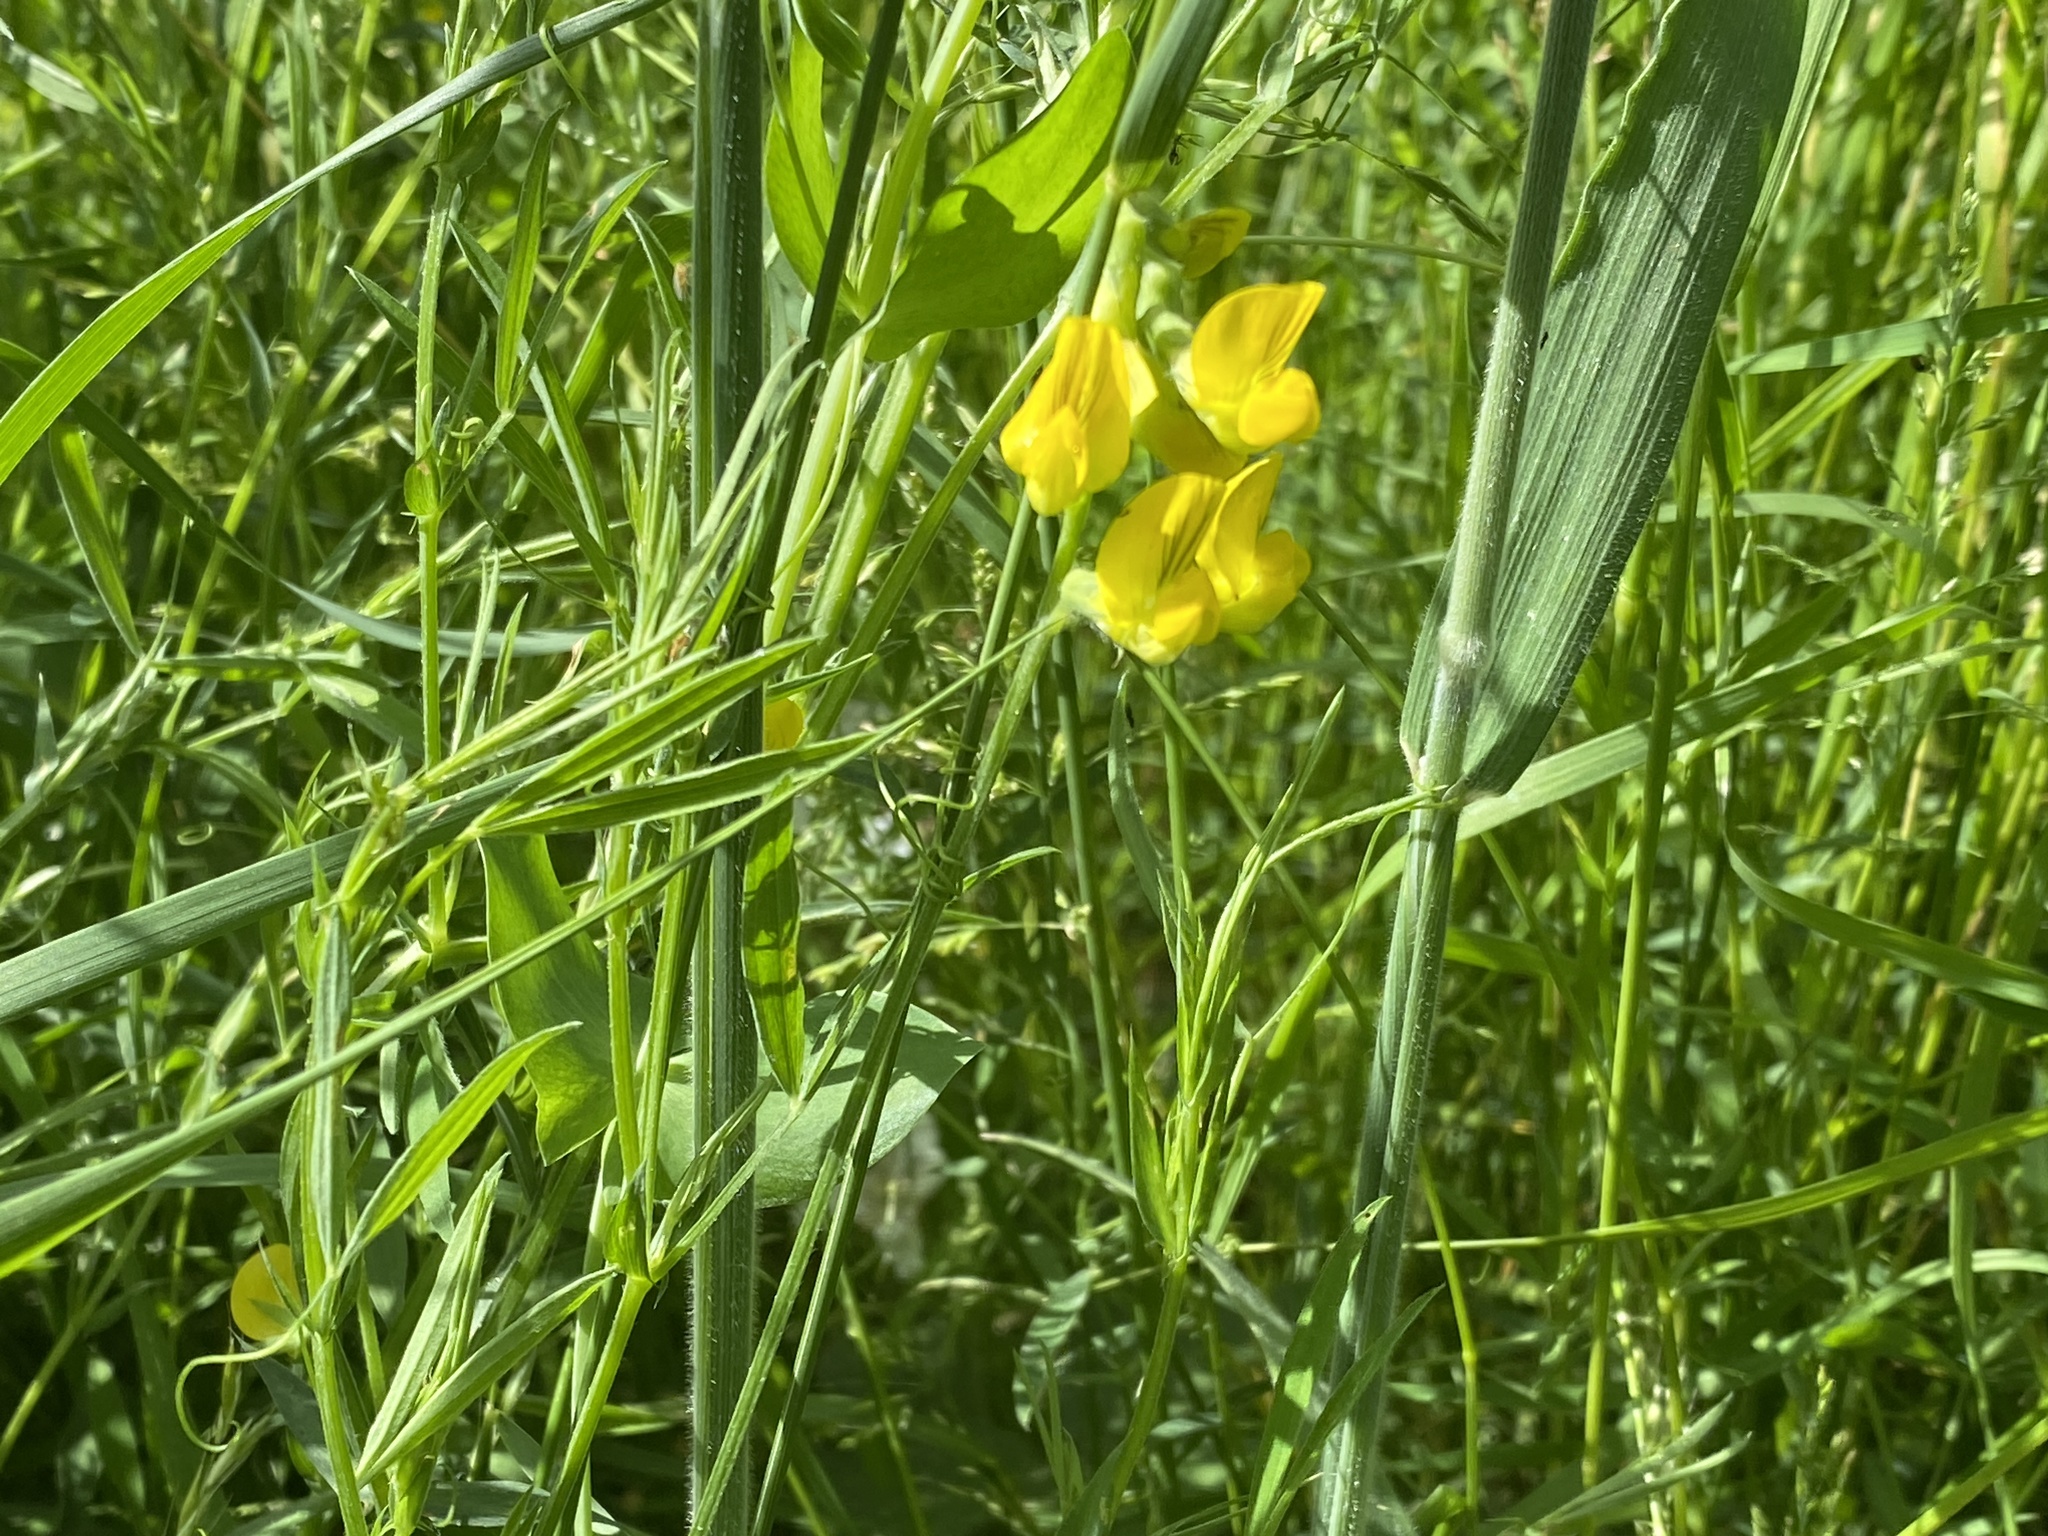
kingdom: Plantae
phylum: Tracheophyta
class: Magnoliopsida
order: Fabales
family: Fabaceae
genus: Lathyrus
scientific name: Lathyrus pratensis
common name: Meadow vetchling
